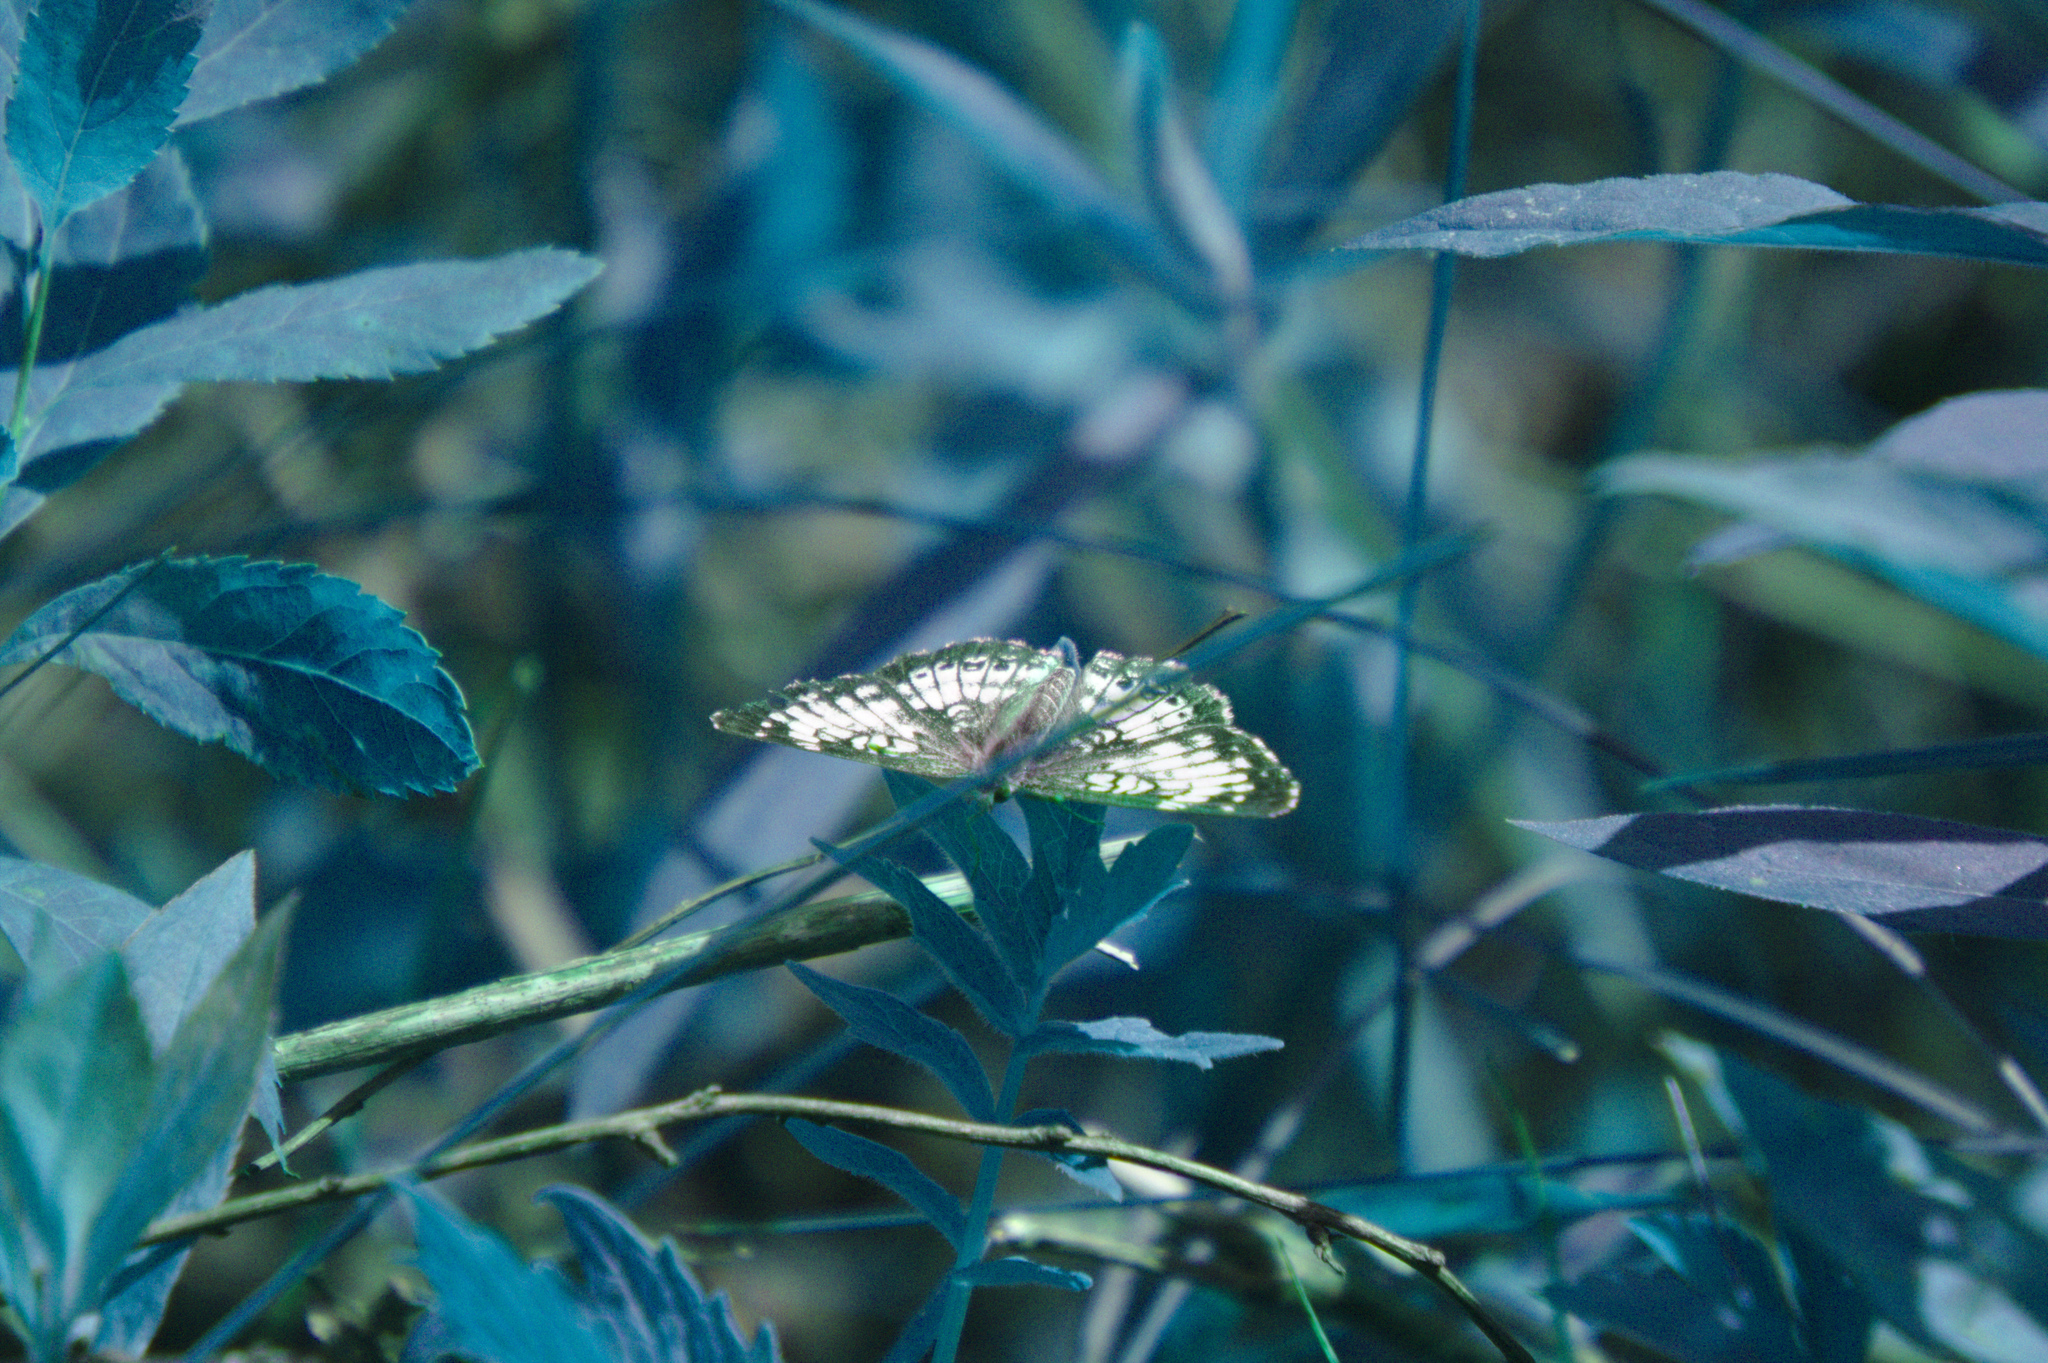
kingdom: Animalia
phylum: Arthropoda
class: Insecta
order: Lepidoptera
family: Nymphalidae
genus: Chlosyne
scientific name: Chlosyne harrisii
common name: Harris's checkerspot
